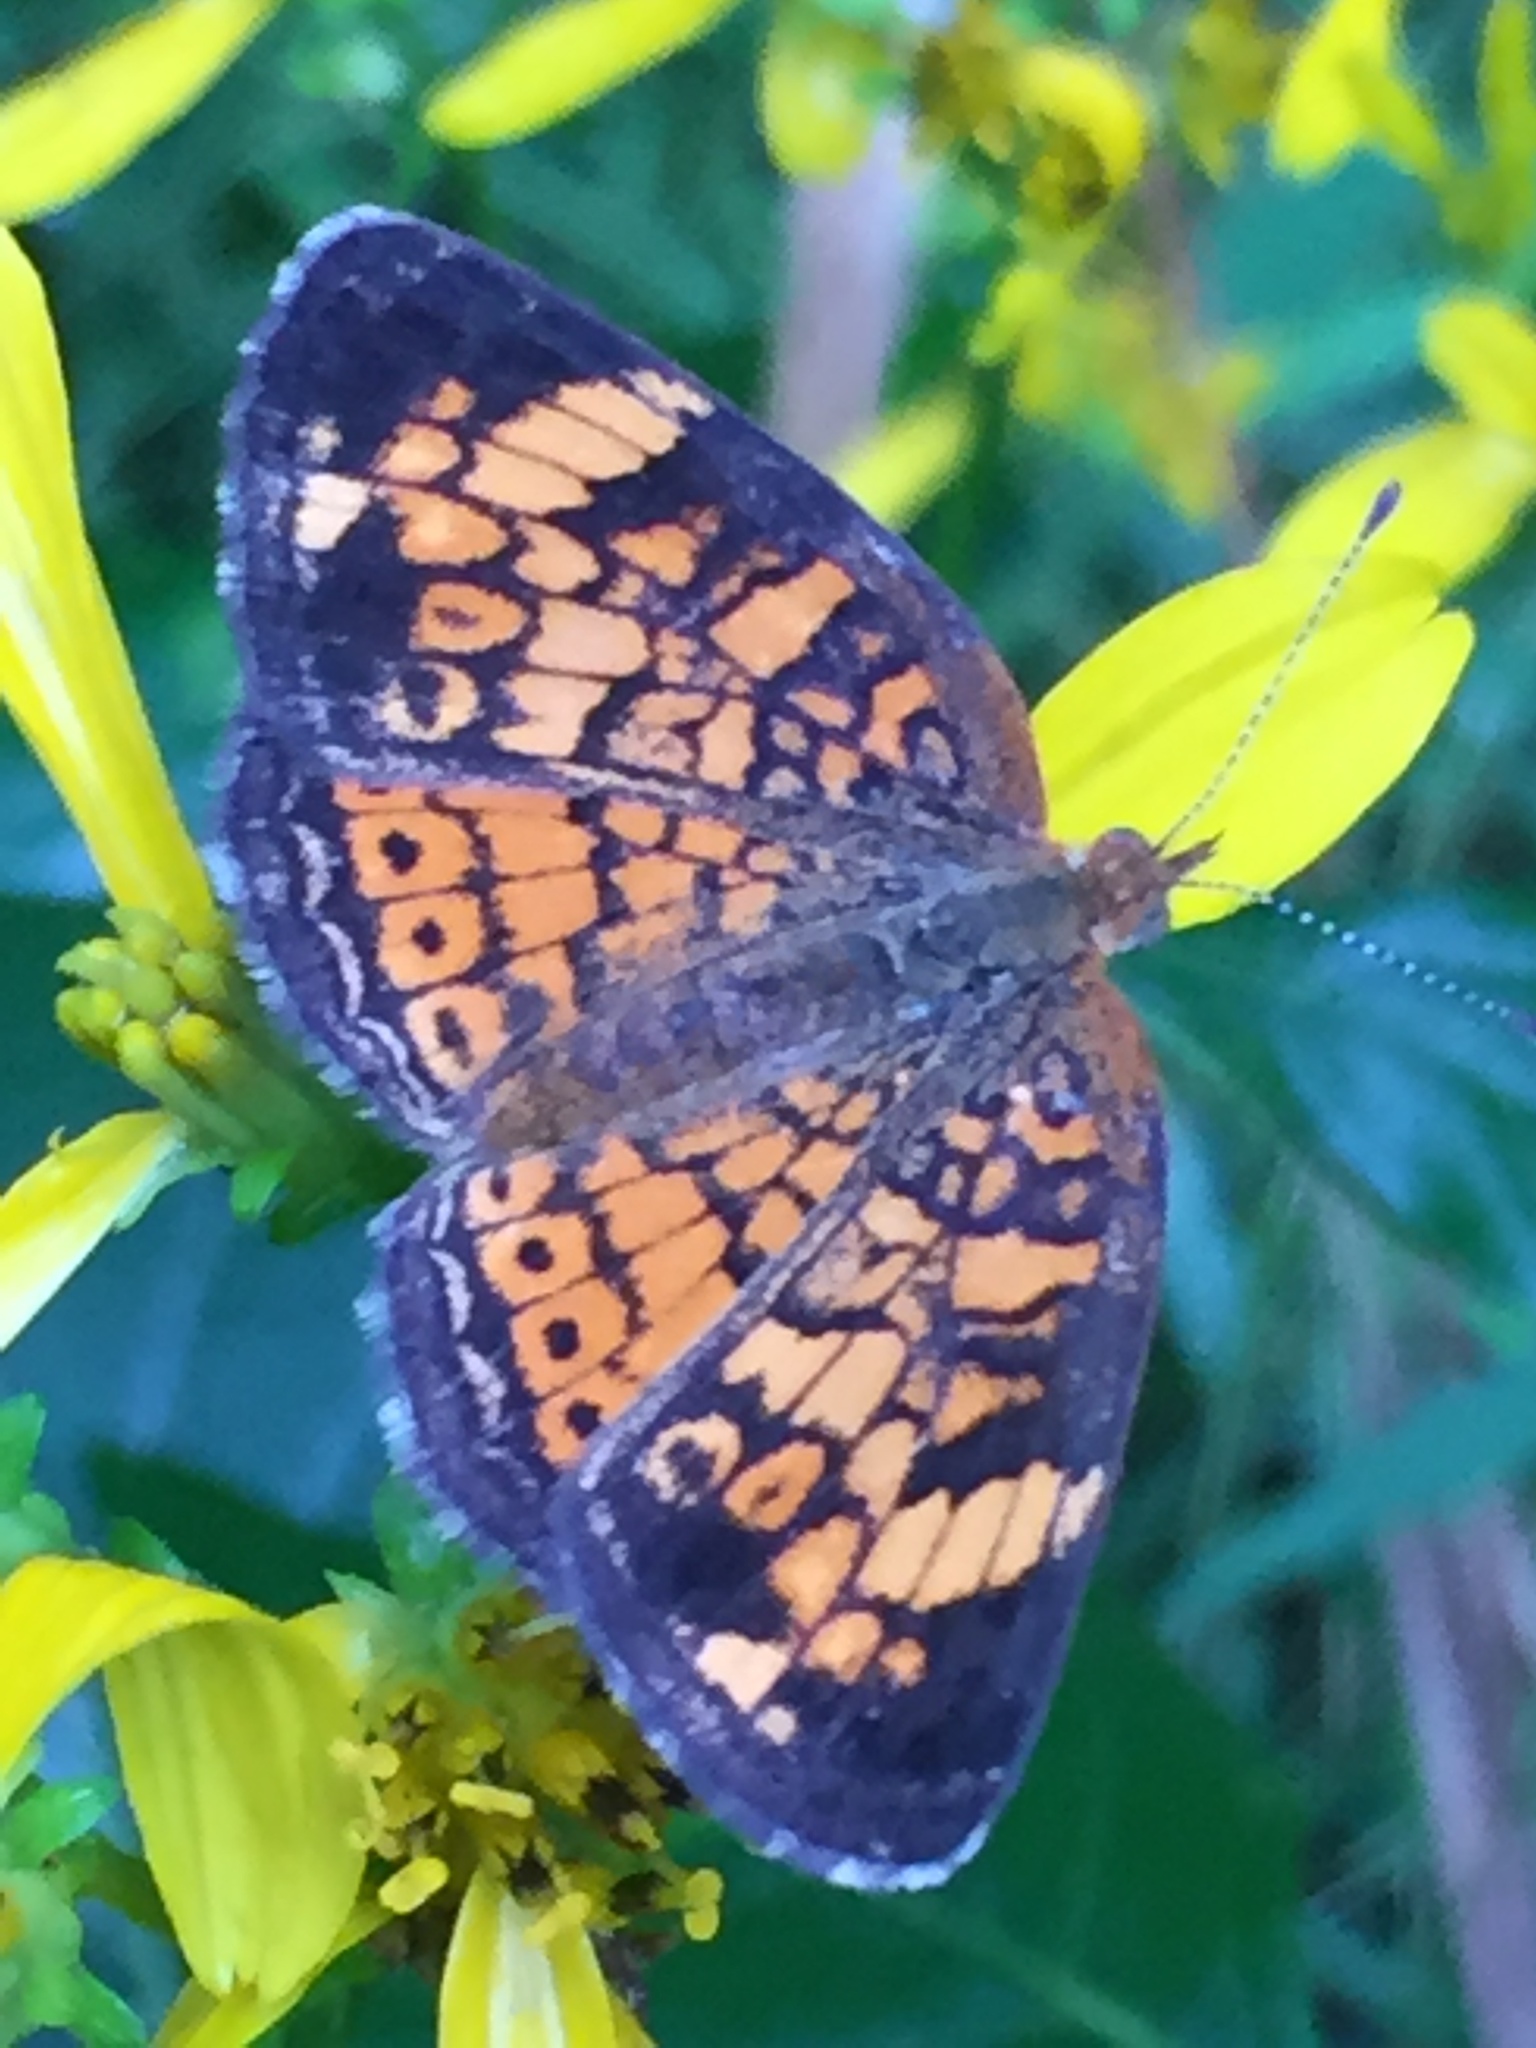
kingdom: Animalia
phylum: Arthropoda
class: Insecta
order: Lepidoptera
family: Nymphalidae
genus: Phyciodes
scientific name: Phyciodes tharos
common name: Pearl crescent
